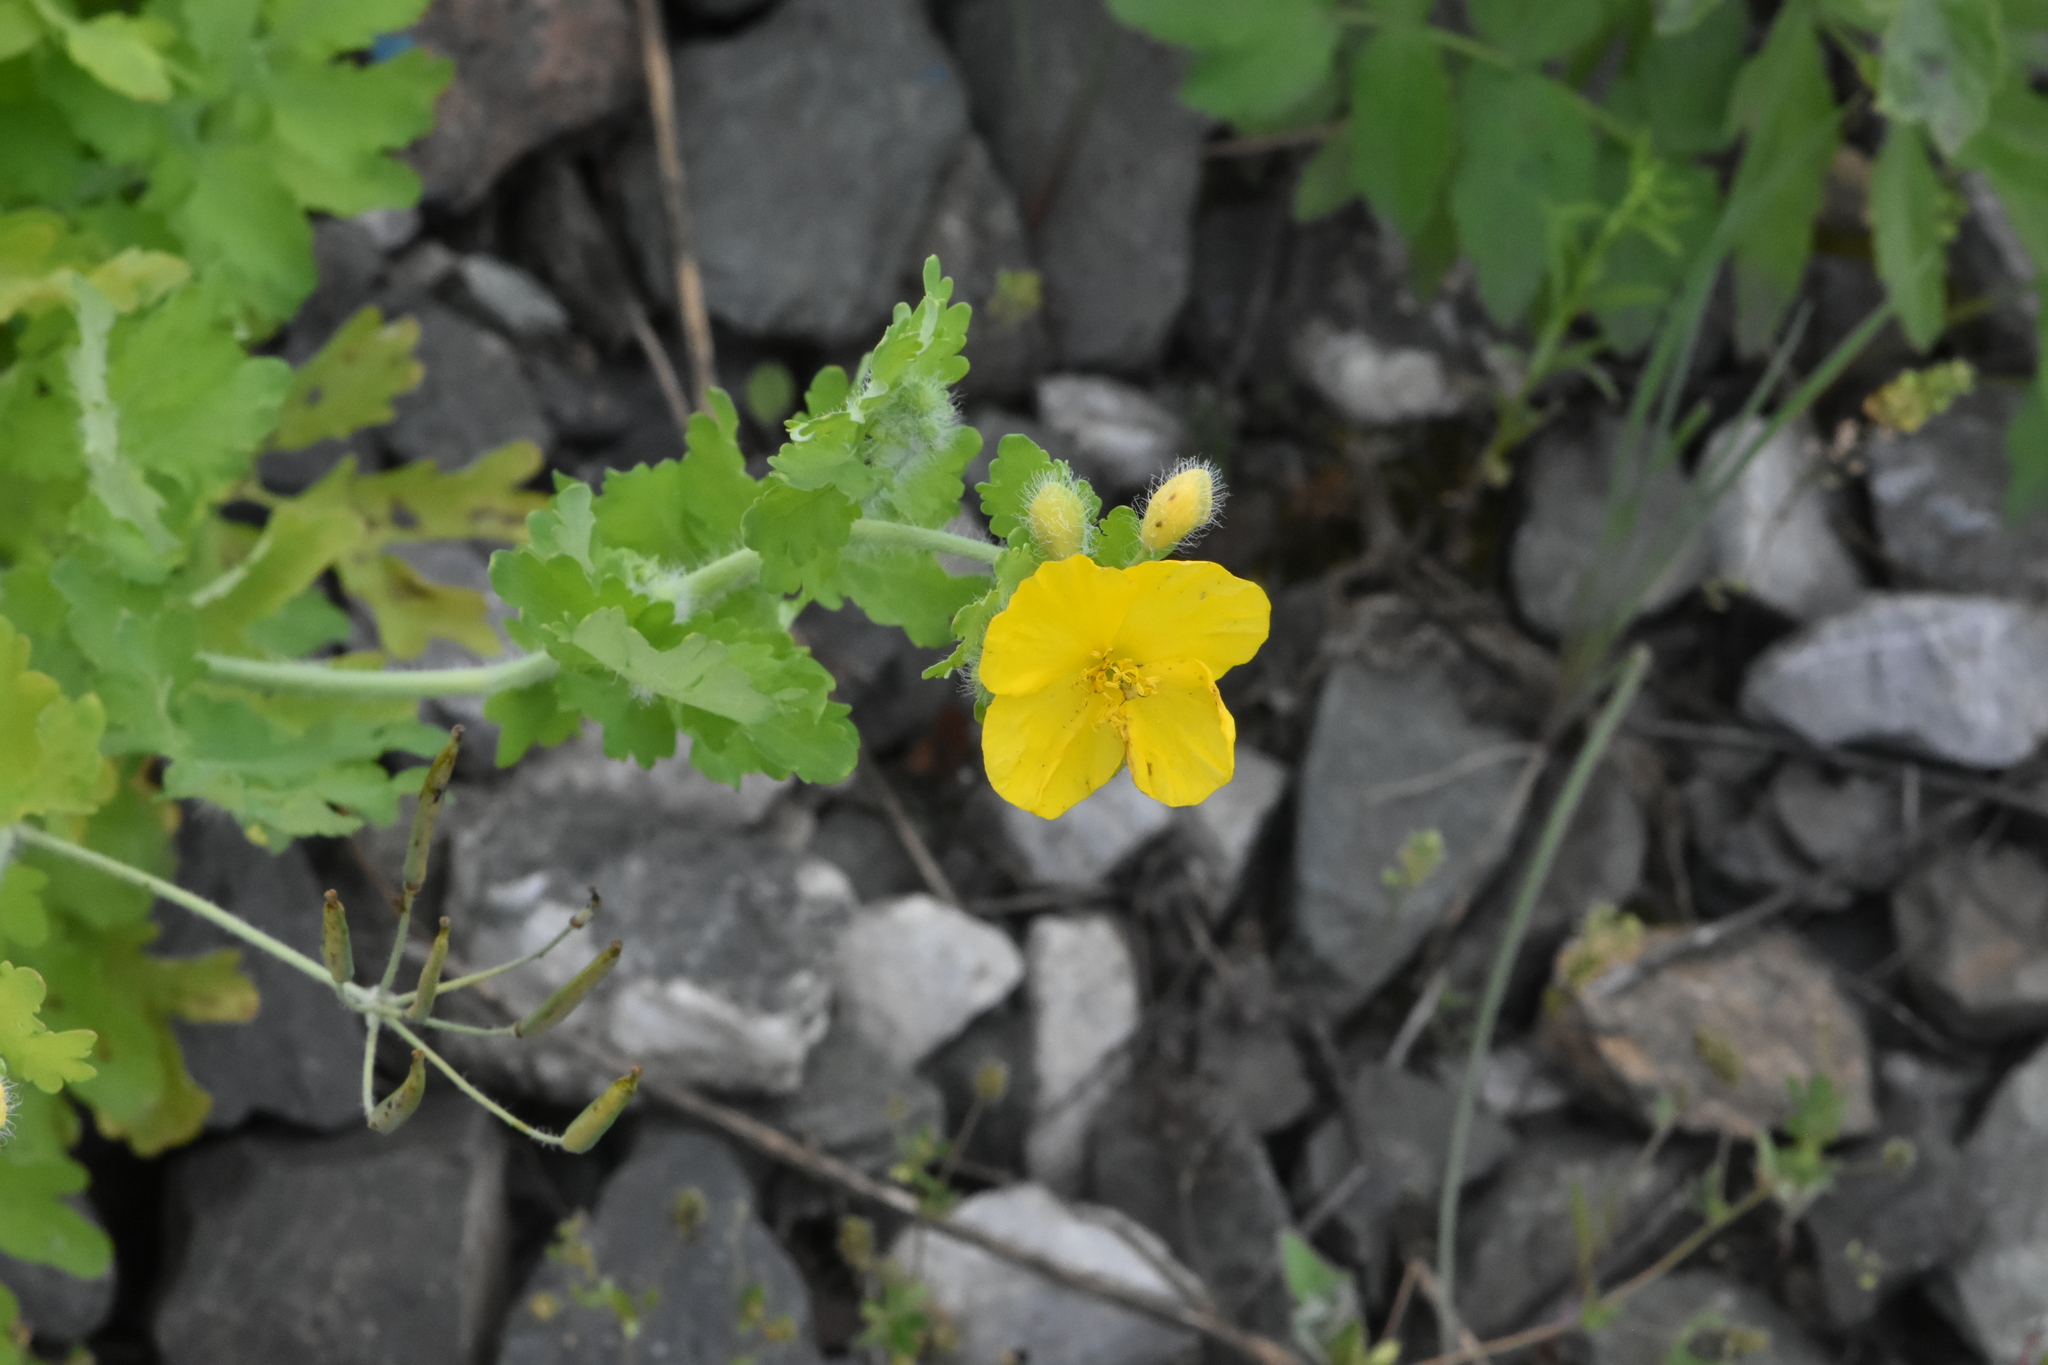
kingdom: Plantae
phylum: Tracheophyta
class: Magnoliopsida
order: Ranunculales
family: Papaveraceae
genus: Chelidonium
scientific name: Chelidonium majus
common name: Greater celandine
